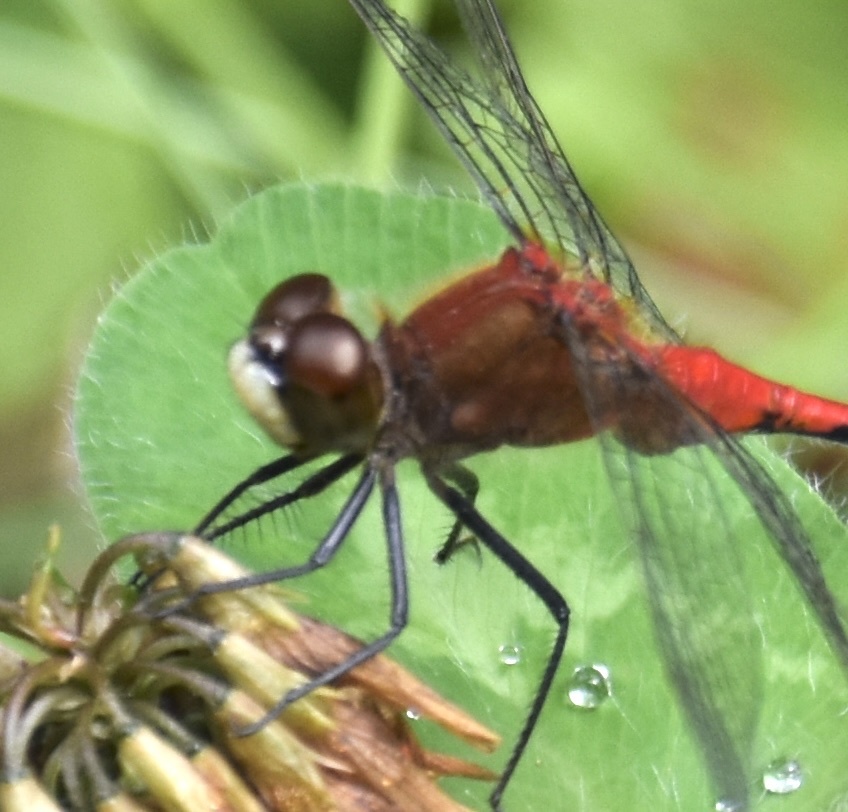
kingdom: Animalia
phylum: Arthropoda
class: Insecta
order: Odonata
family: Libellulidae
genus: Sympetrum
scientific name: Sympetrum obtrusum
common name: White-faced meadowhawk
